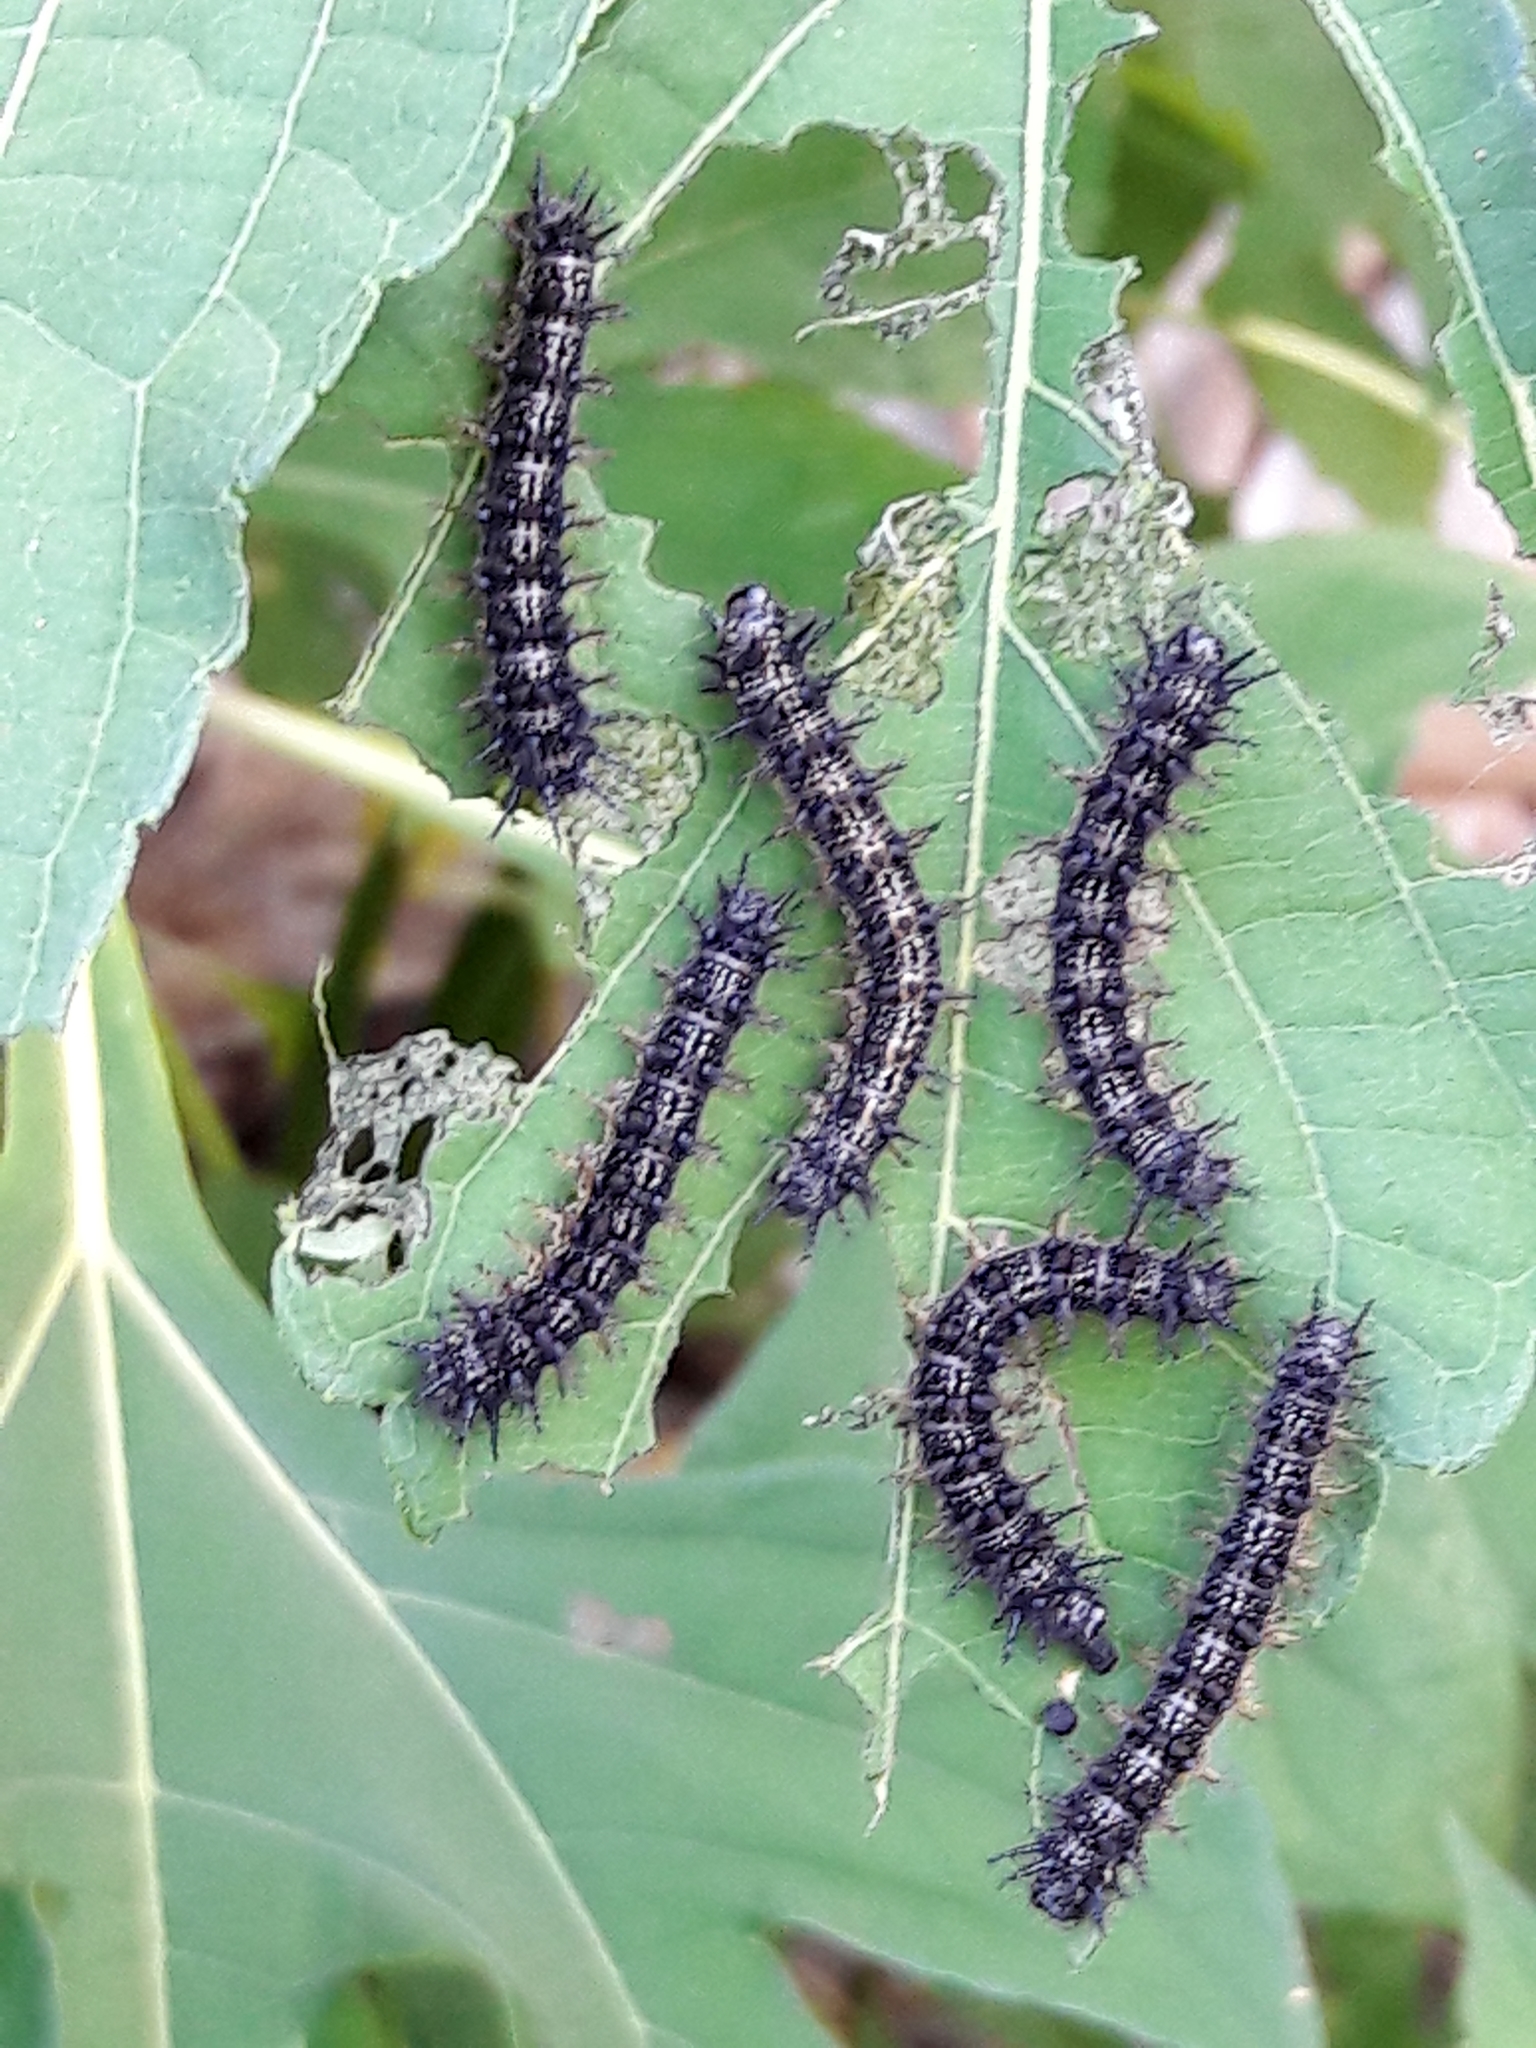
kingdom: Animalia
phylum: Arthropoda
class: Insecta
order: Lepidoptera
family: Nymphalidae
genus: Chlosyne
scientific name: Chlosyne lacinia
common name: Bordered patch
